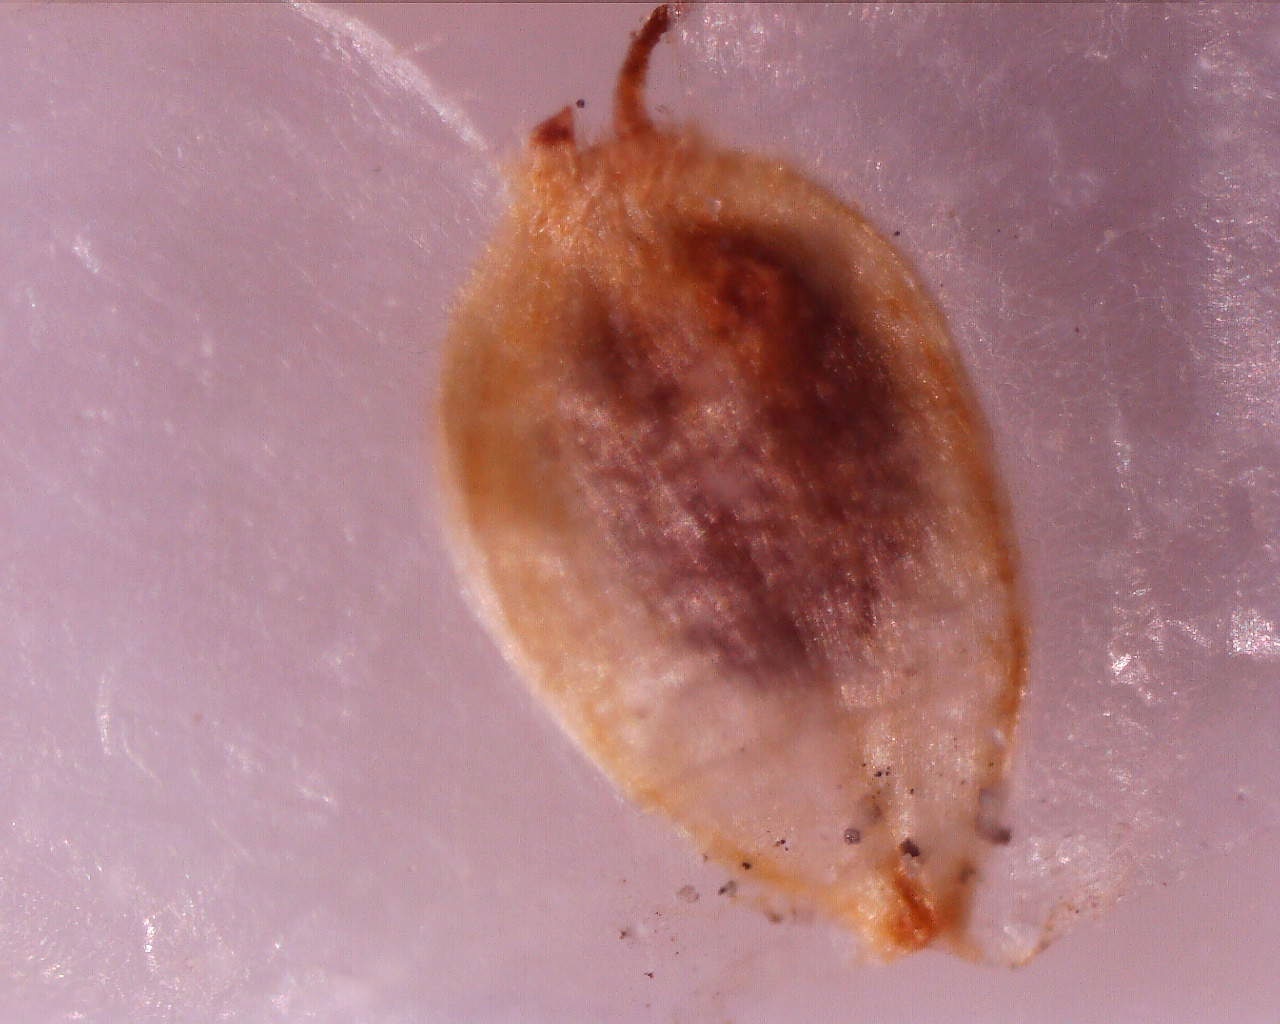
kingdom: Plantae
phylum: Tracheophyta
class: Magnoliopsida
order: Rosales
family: Ulmaceae
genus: Ulmus
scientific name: Ulmus pumila
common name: Siberian elm
